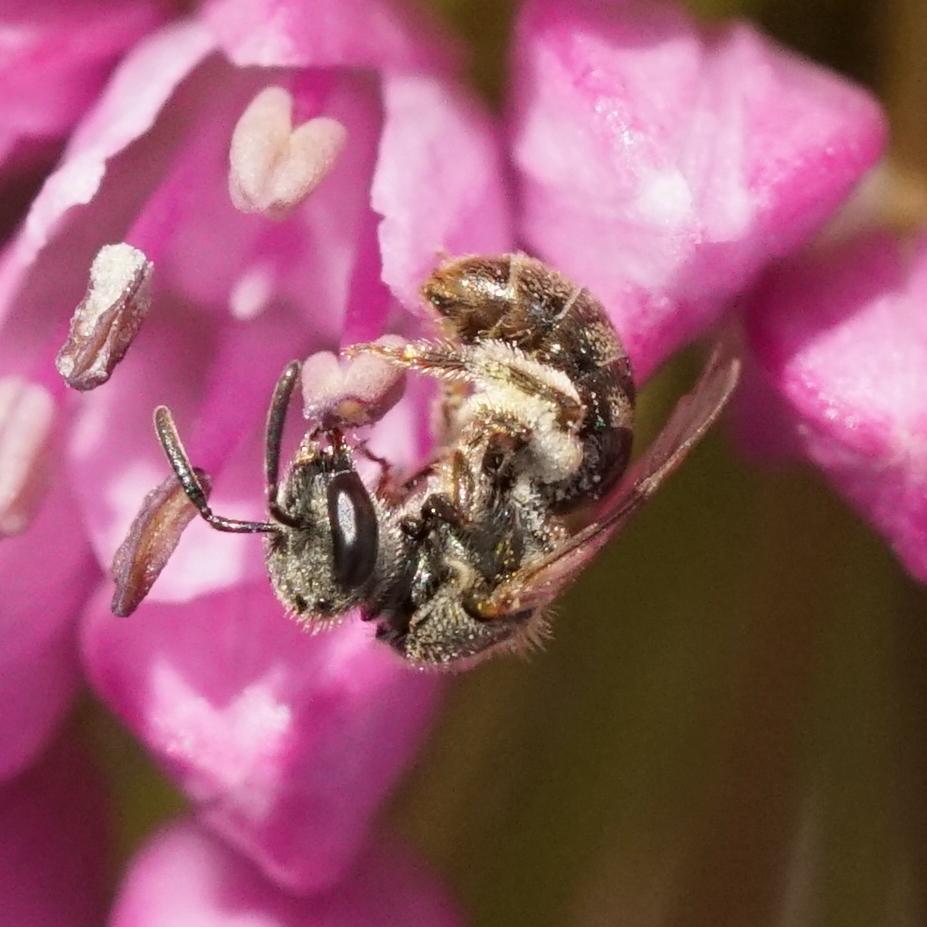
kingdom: Animalia
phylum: Arthropoda
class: Insecta
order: Hymenoptera
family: Halictidae
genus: Dialictus
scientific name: Dialictus
